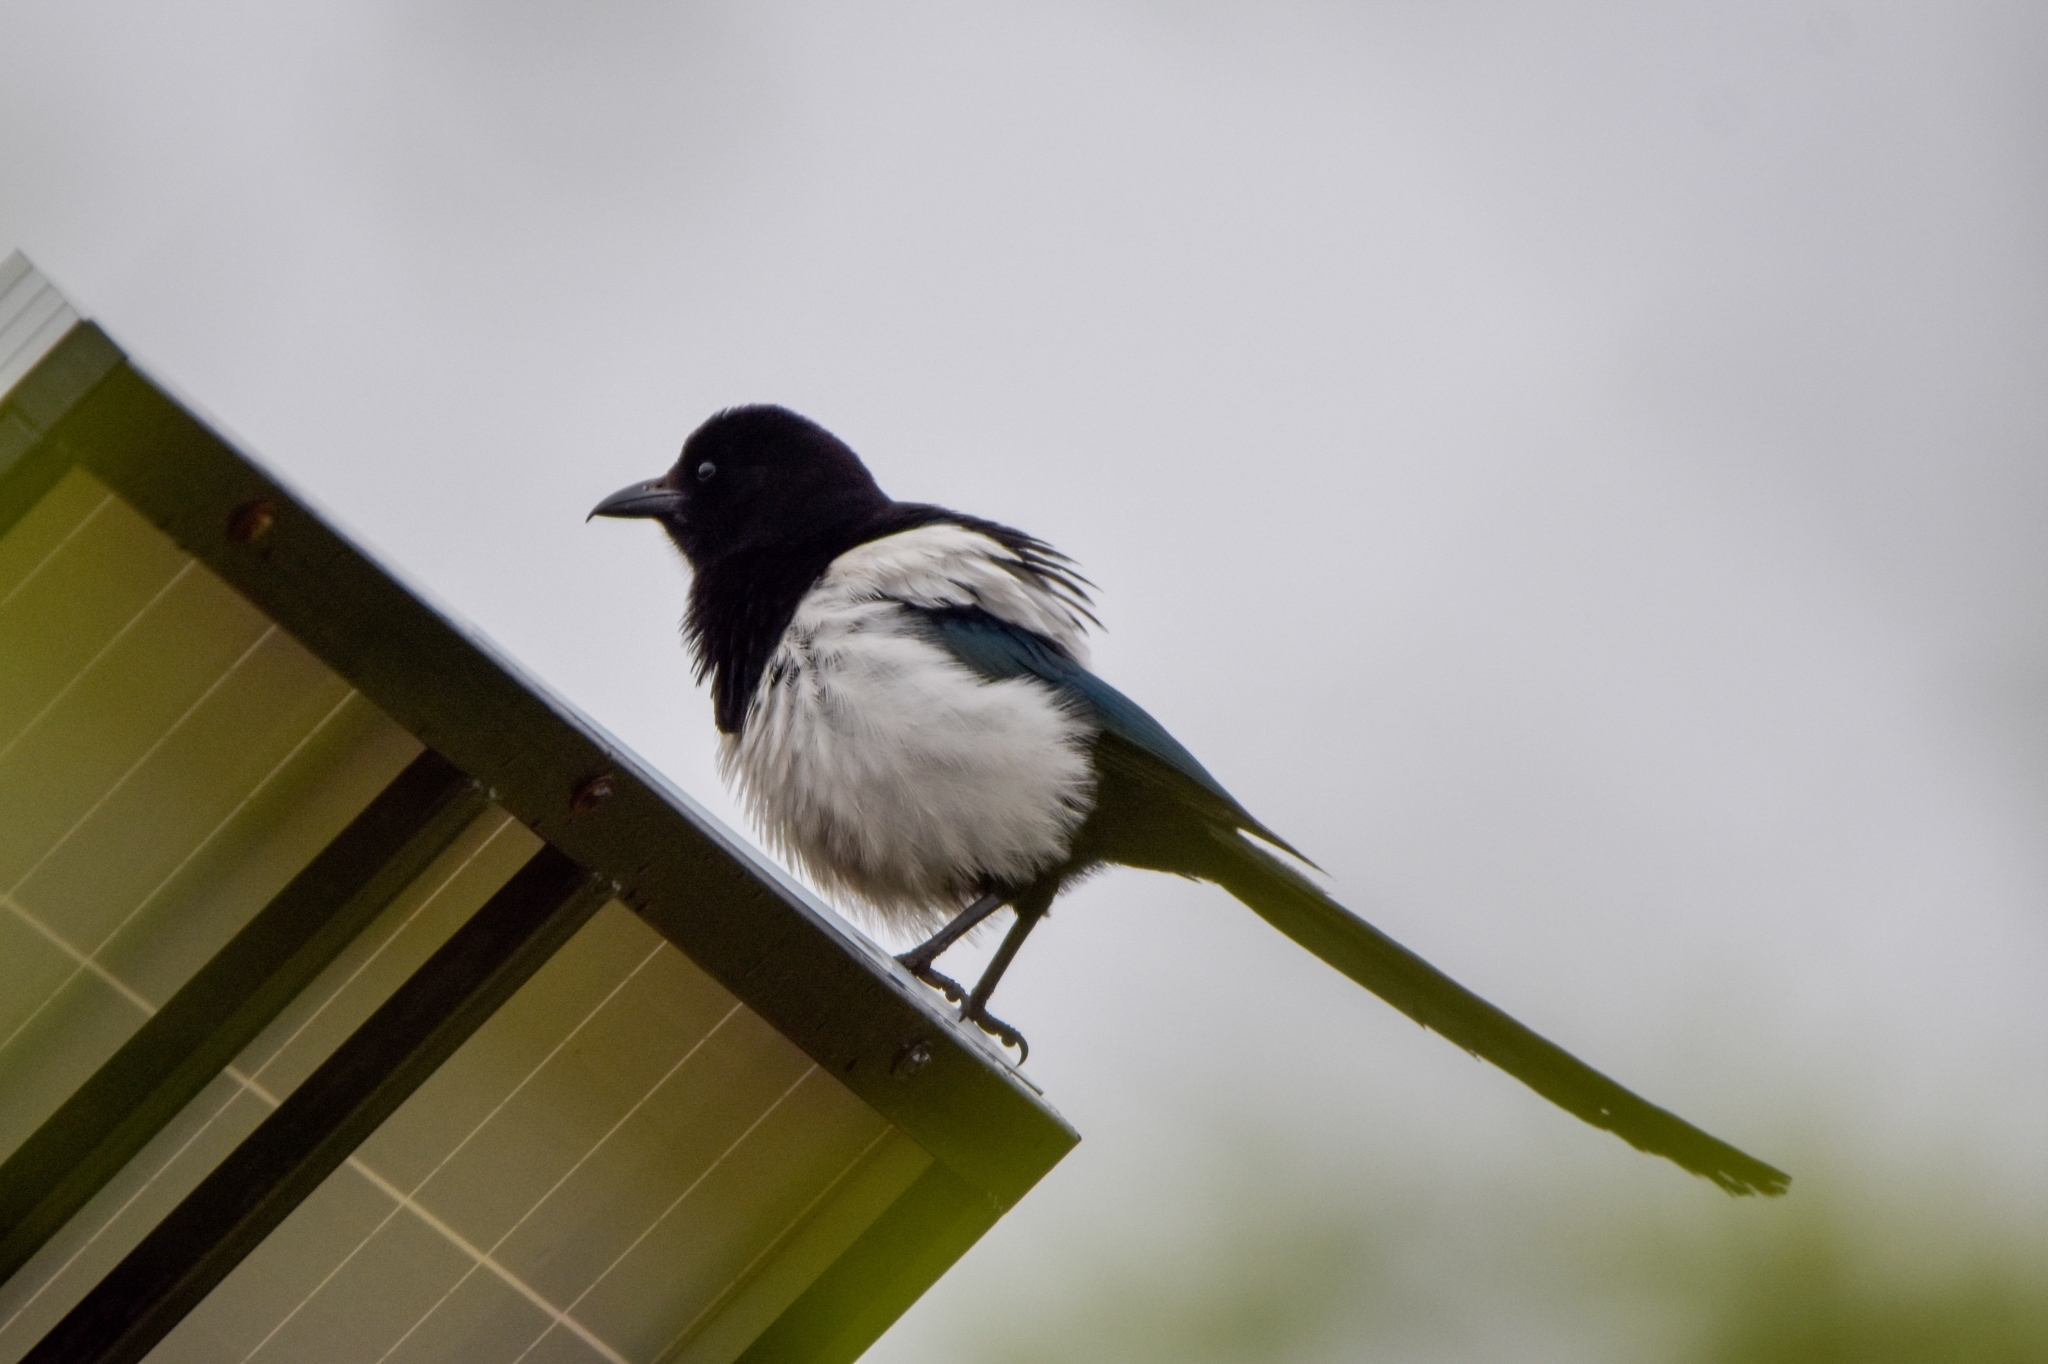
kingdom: Animalia
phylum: Chordata
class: Aves
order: Passeriformes
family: Corvidae
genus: Pica
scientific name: Pica pica
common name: Eurasian magpie
